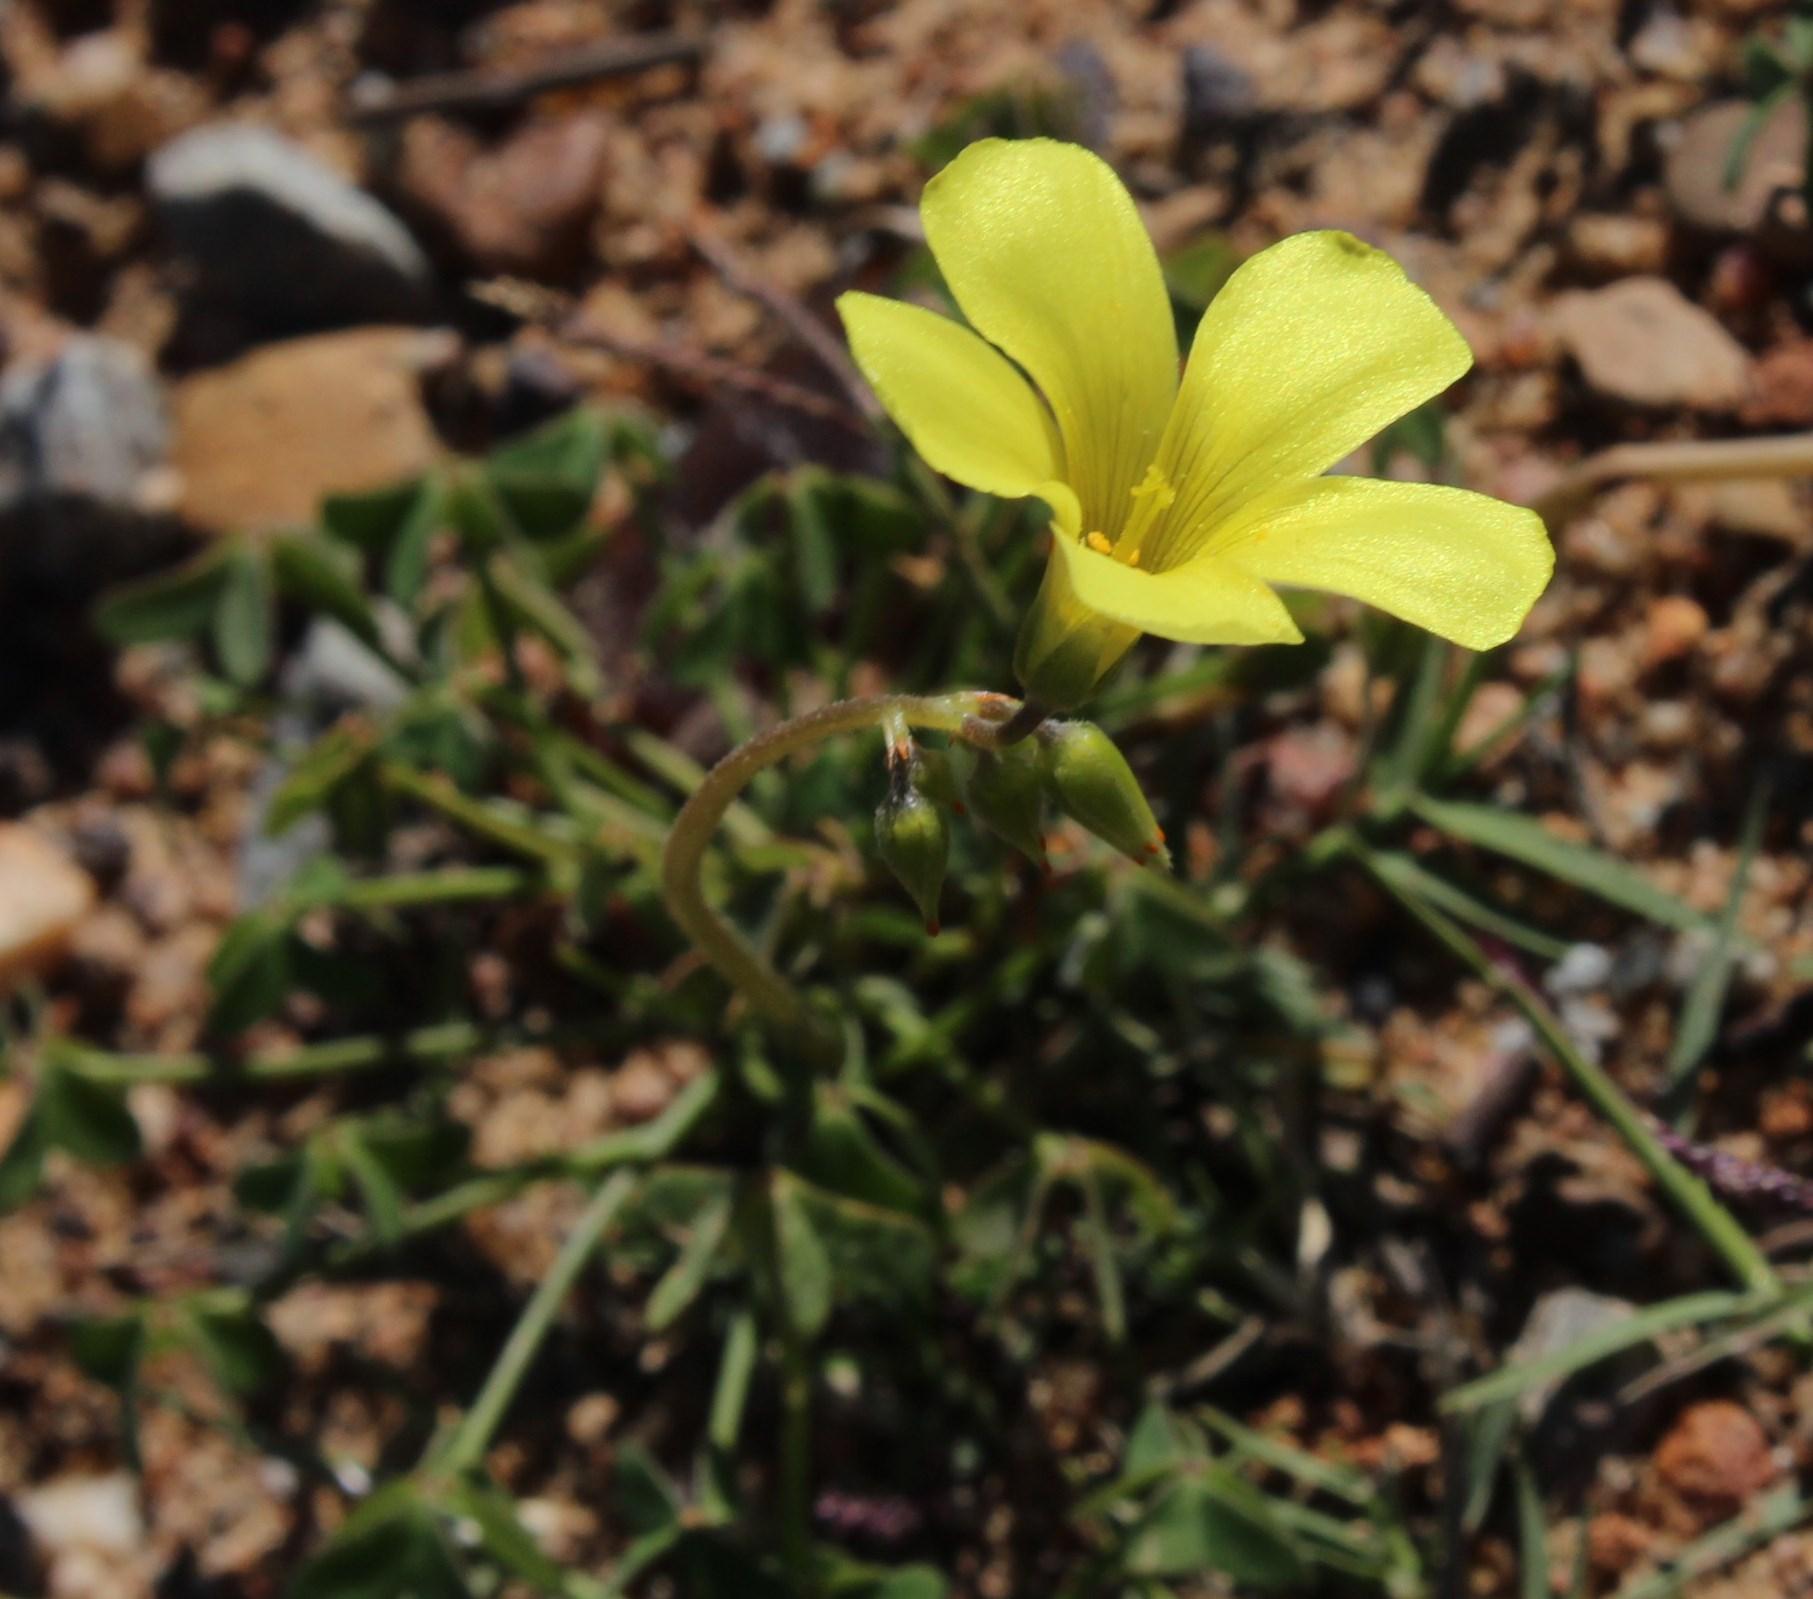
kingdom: Plantae
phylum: Tracheophyta
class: Magnoliopsida
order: Oxalidales
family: Oxalidaceae
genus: Oxalis
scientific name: Oxalis pes-caprae
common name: Bermuda-buttercup
